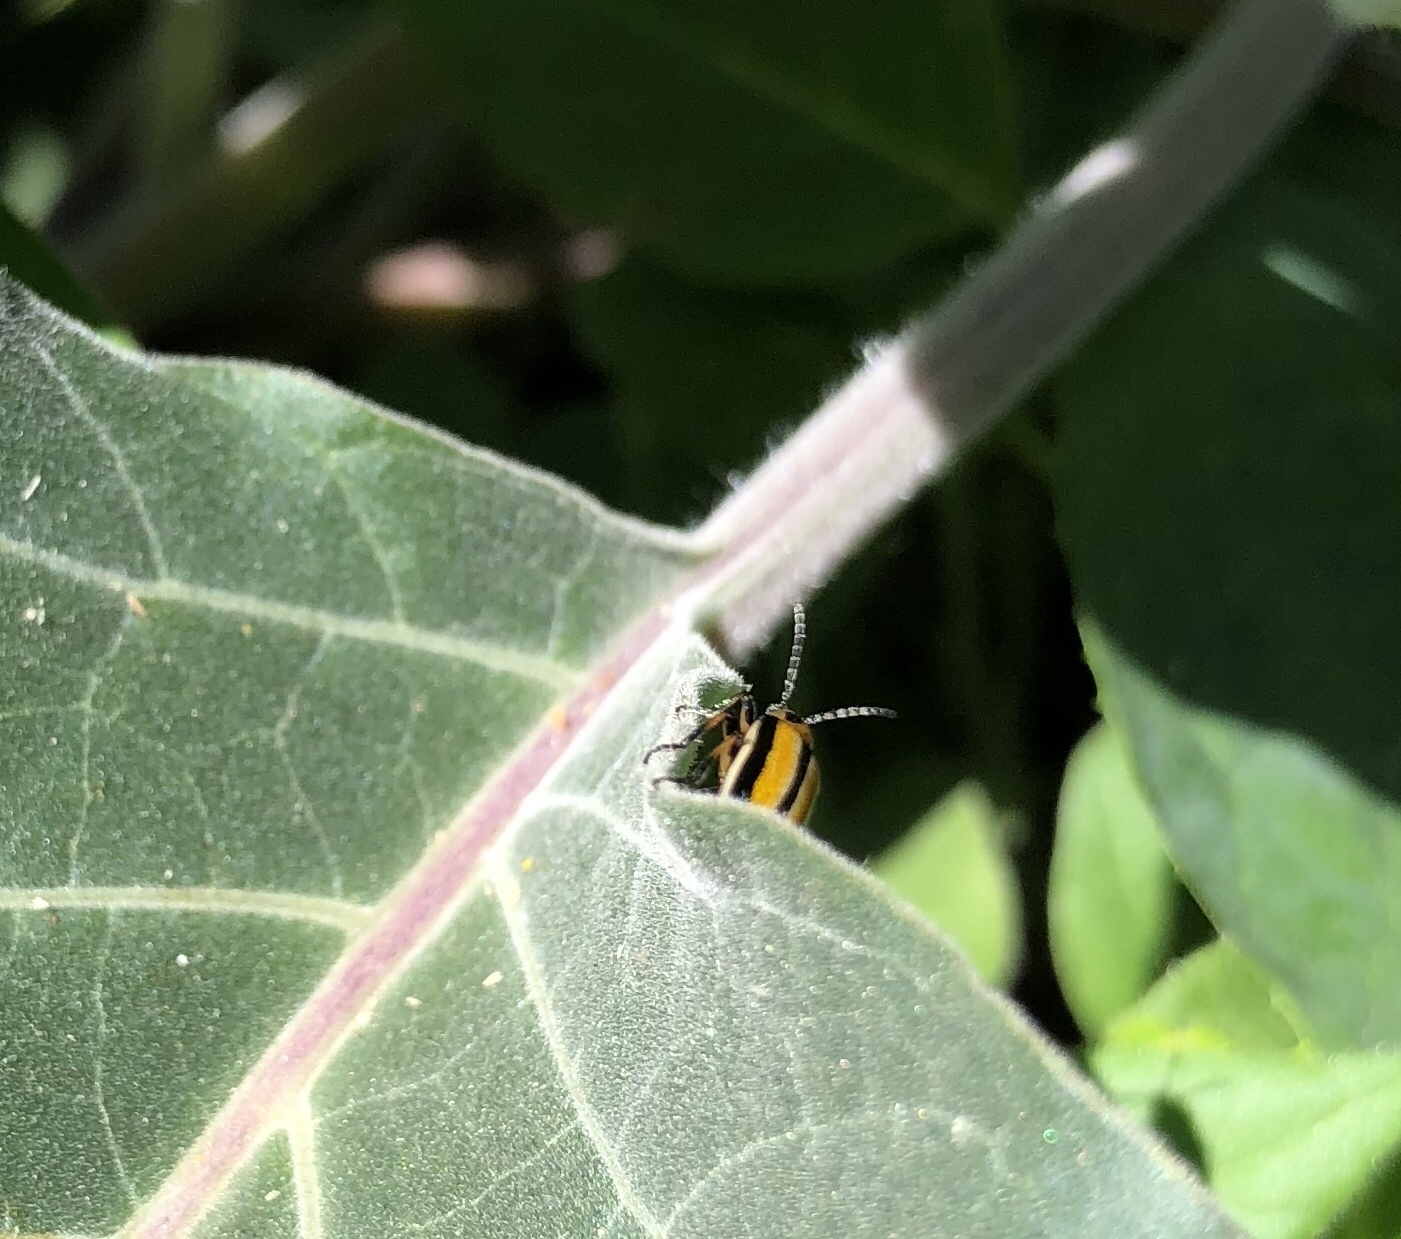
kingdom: Animalia
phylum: Arthropoda
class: Insecta
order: Coleoptera
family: Chrysomelidae
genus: Lema
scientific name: Lema daturaphila
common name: Leaf beetle
